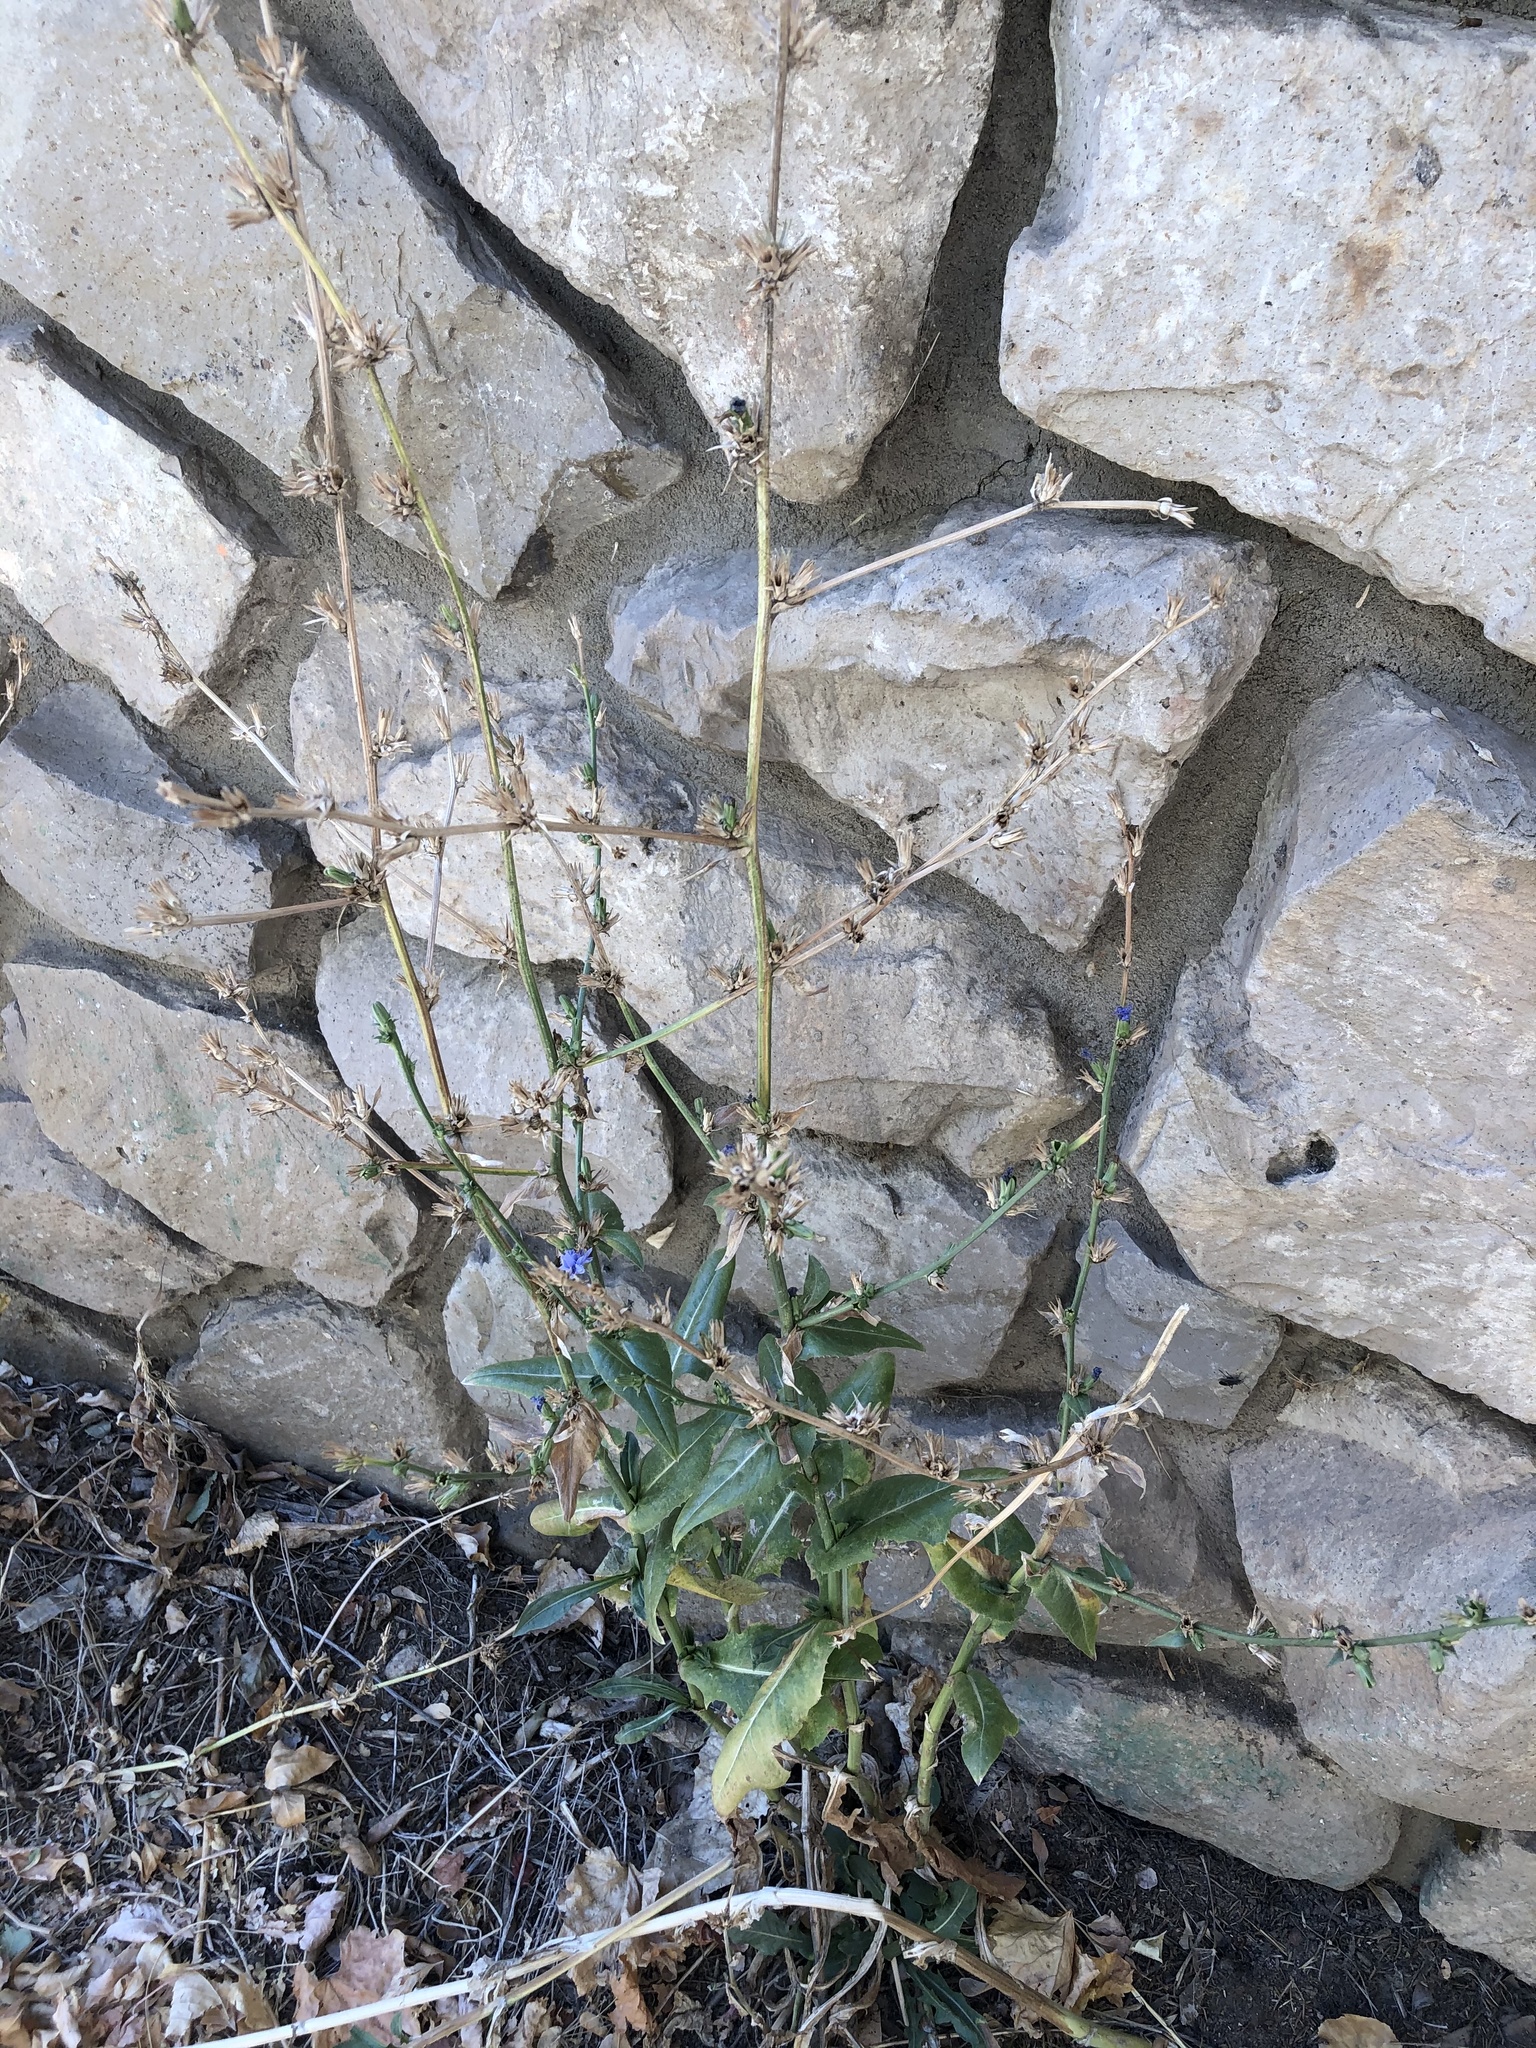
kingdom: Plantae
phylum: Tracheophyta
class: Magnoliopsida
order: Asterales
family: Asteraceae
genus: Cichorium
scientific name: Cichorium intybus
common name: Chicory
